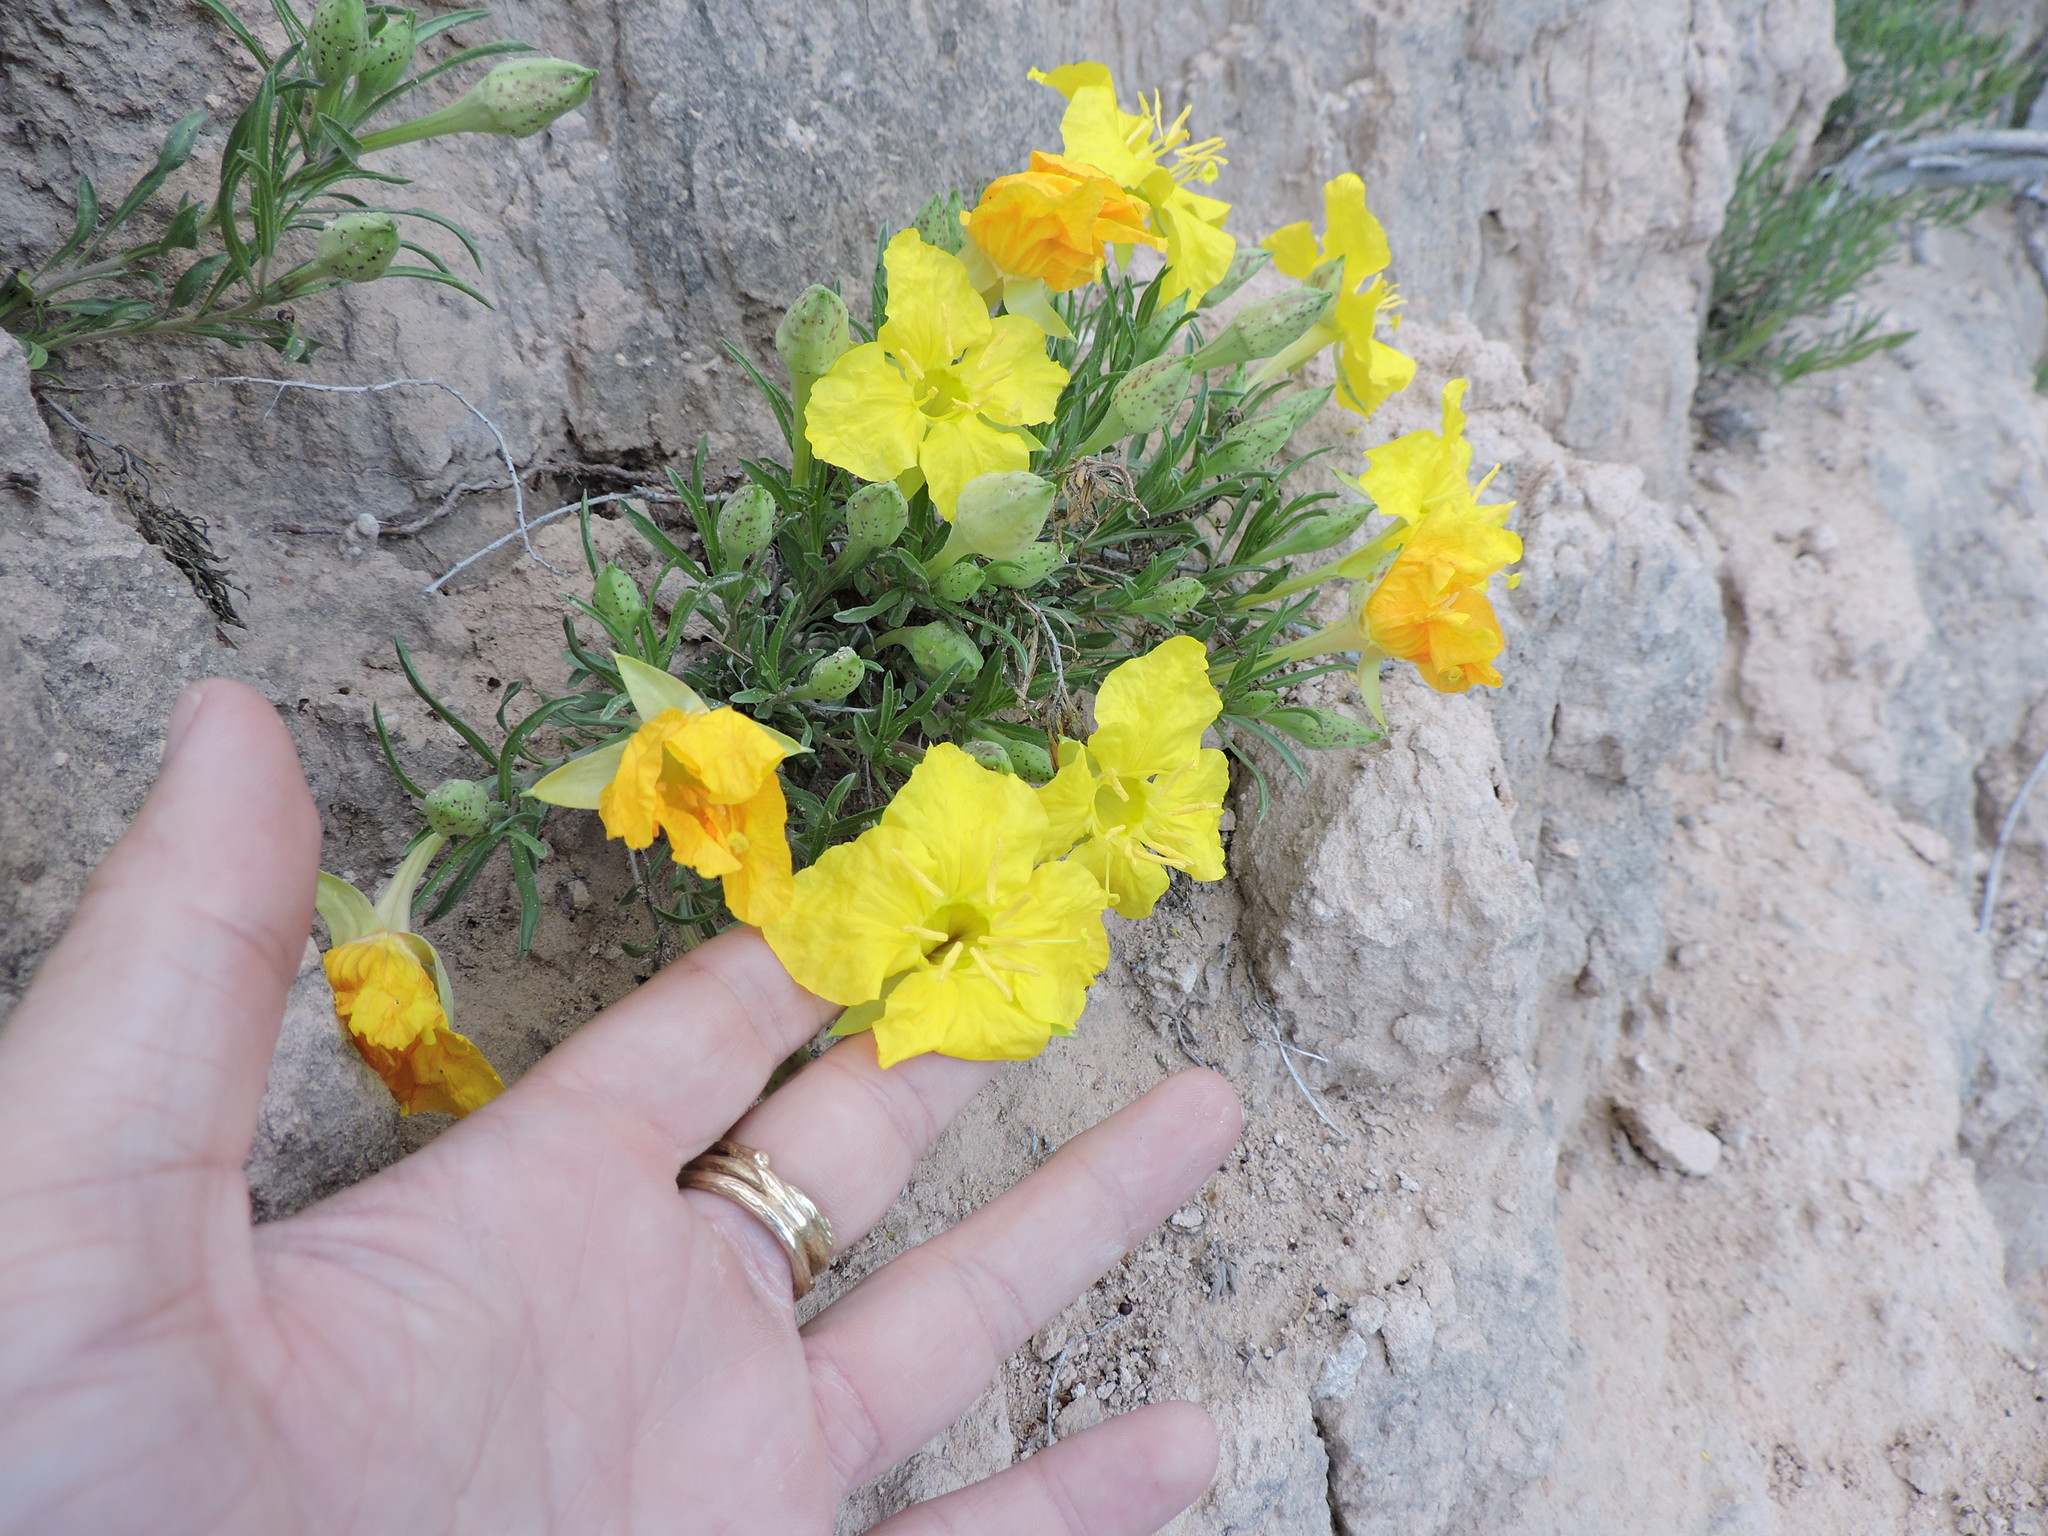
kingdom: Plantae
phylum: Tracheophyta
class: Magnoliopsida
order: Myrtales
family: Onagraceae
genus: Oenothera
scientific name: Oenothera lavandulifolia
